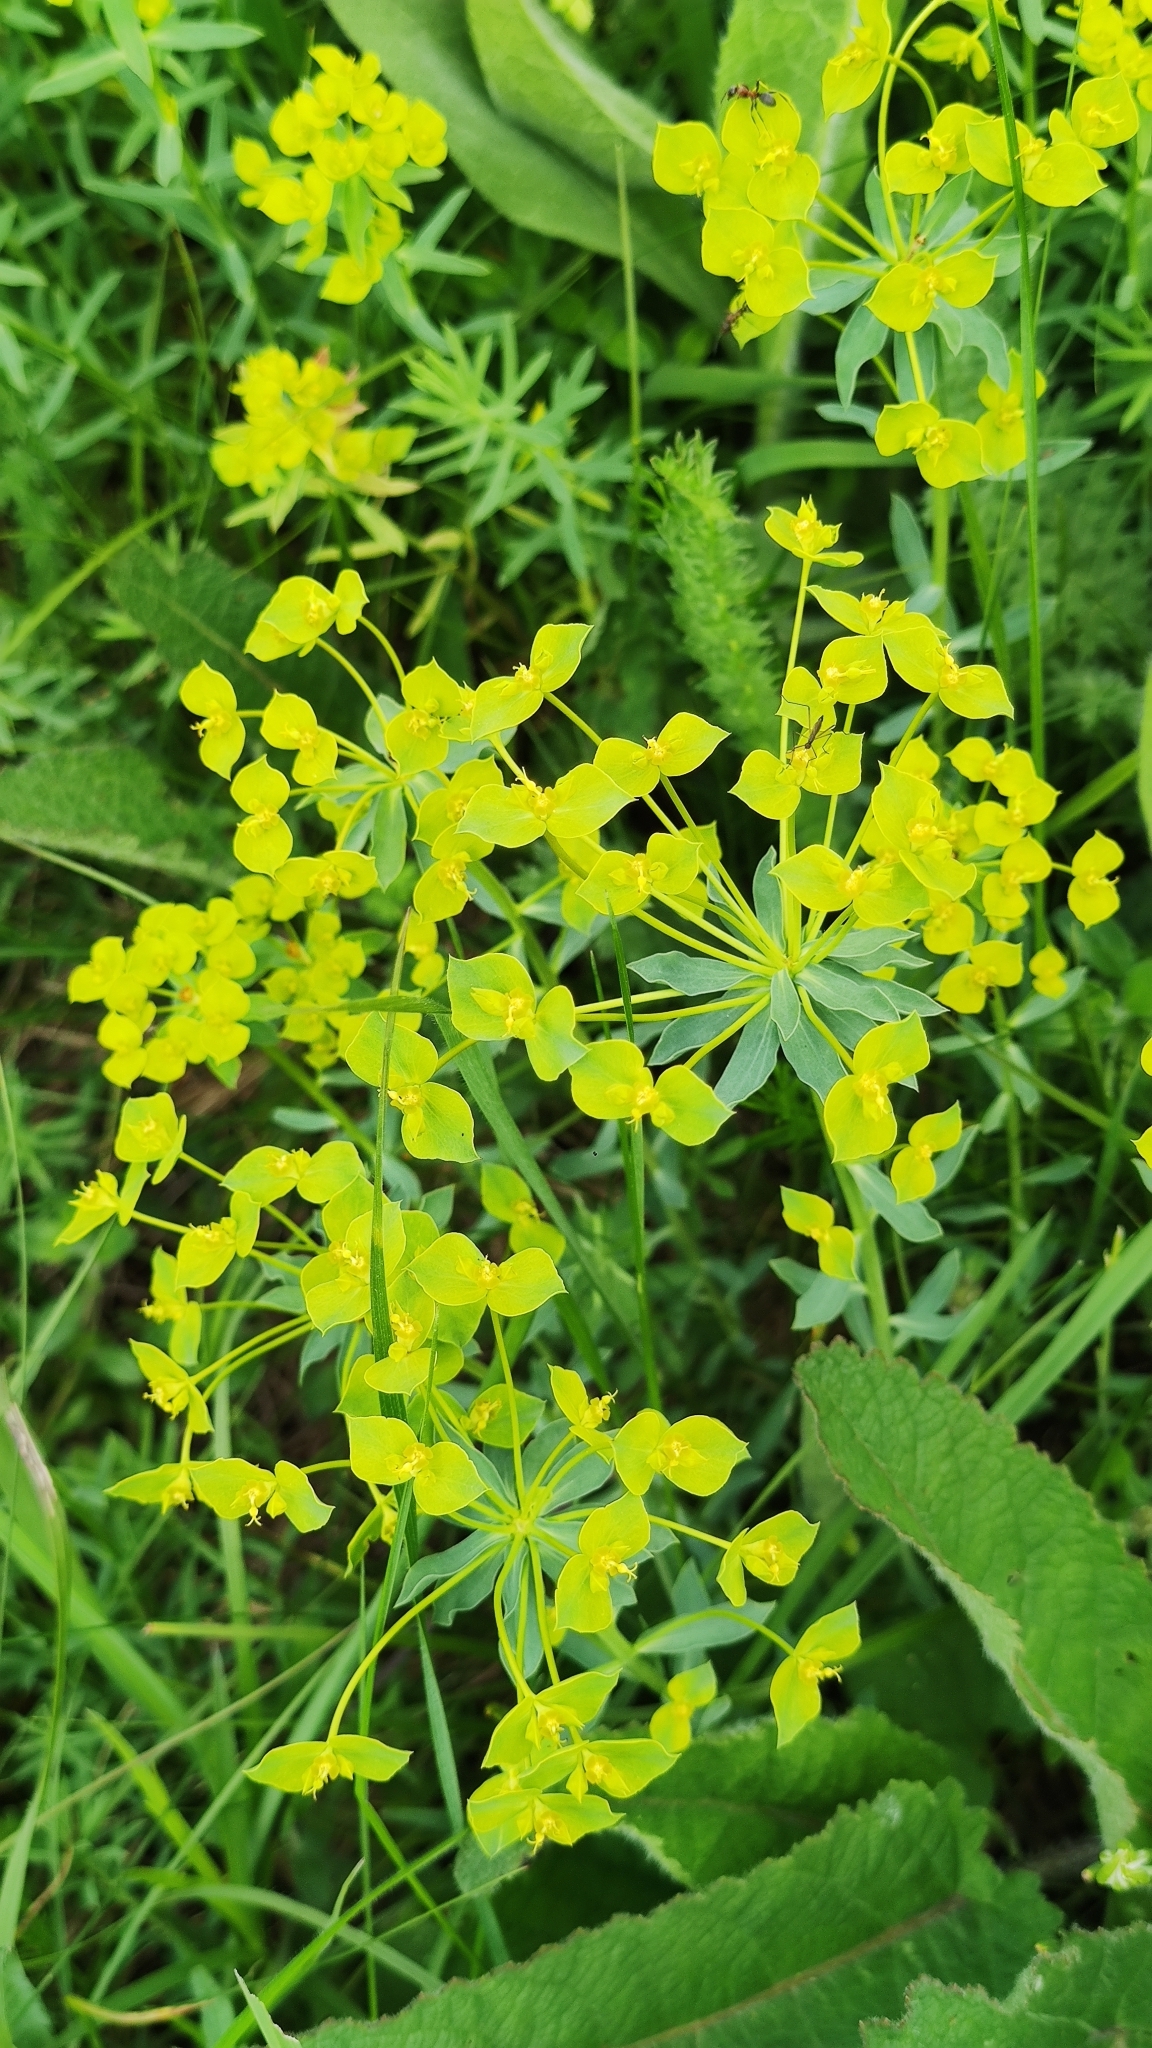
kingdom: Plantae
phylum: Tracheophyta
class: Magnoliopsida
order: Malpighiales
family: Euphorbiaceae
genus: Euphorbia
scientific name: Euphorbia seguieriana
